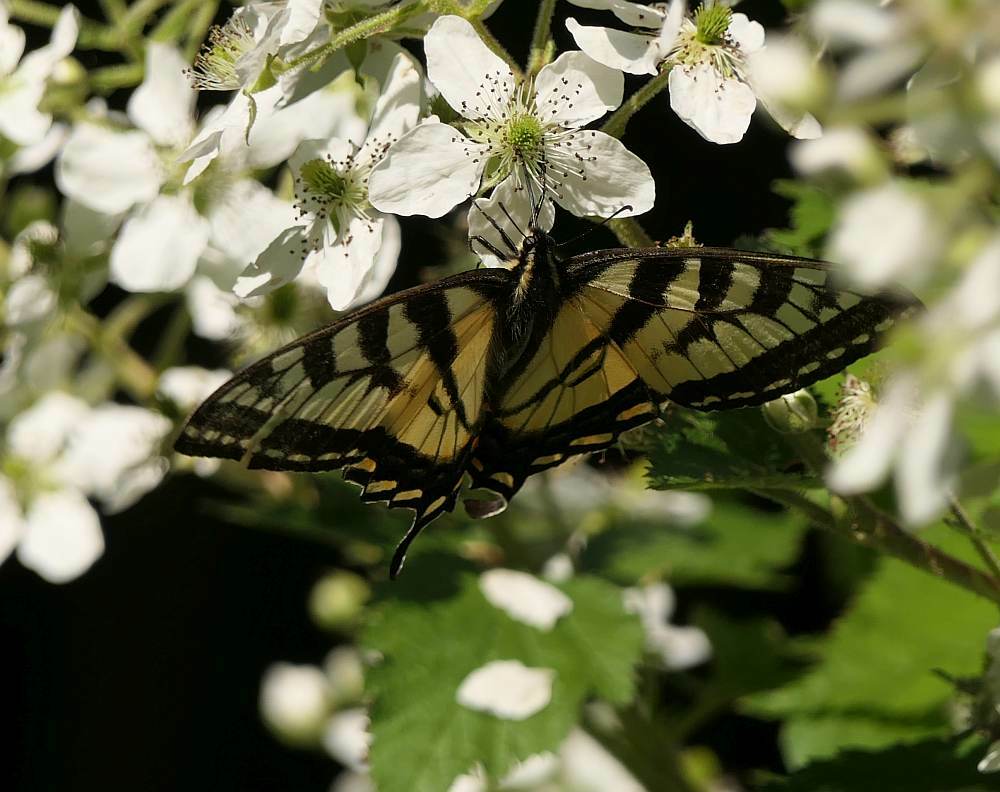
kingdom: Animalia
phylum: Arthropoda
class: Insecta
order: Lepidoptera
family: Papilionidae
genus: Papilio
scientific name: Papilio canadensis
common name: Canadian tiger swallowtail
